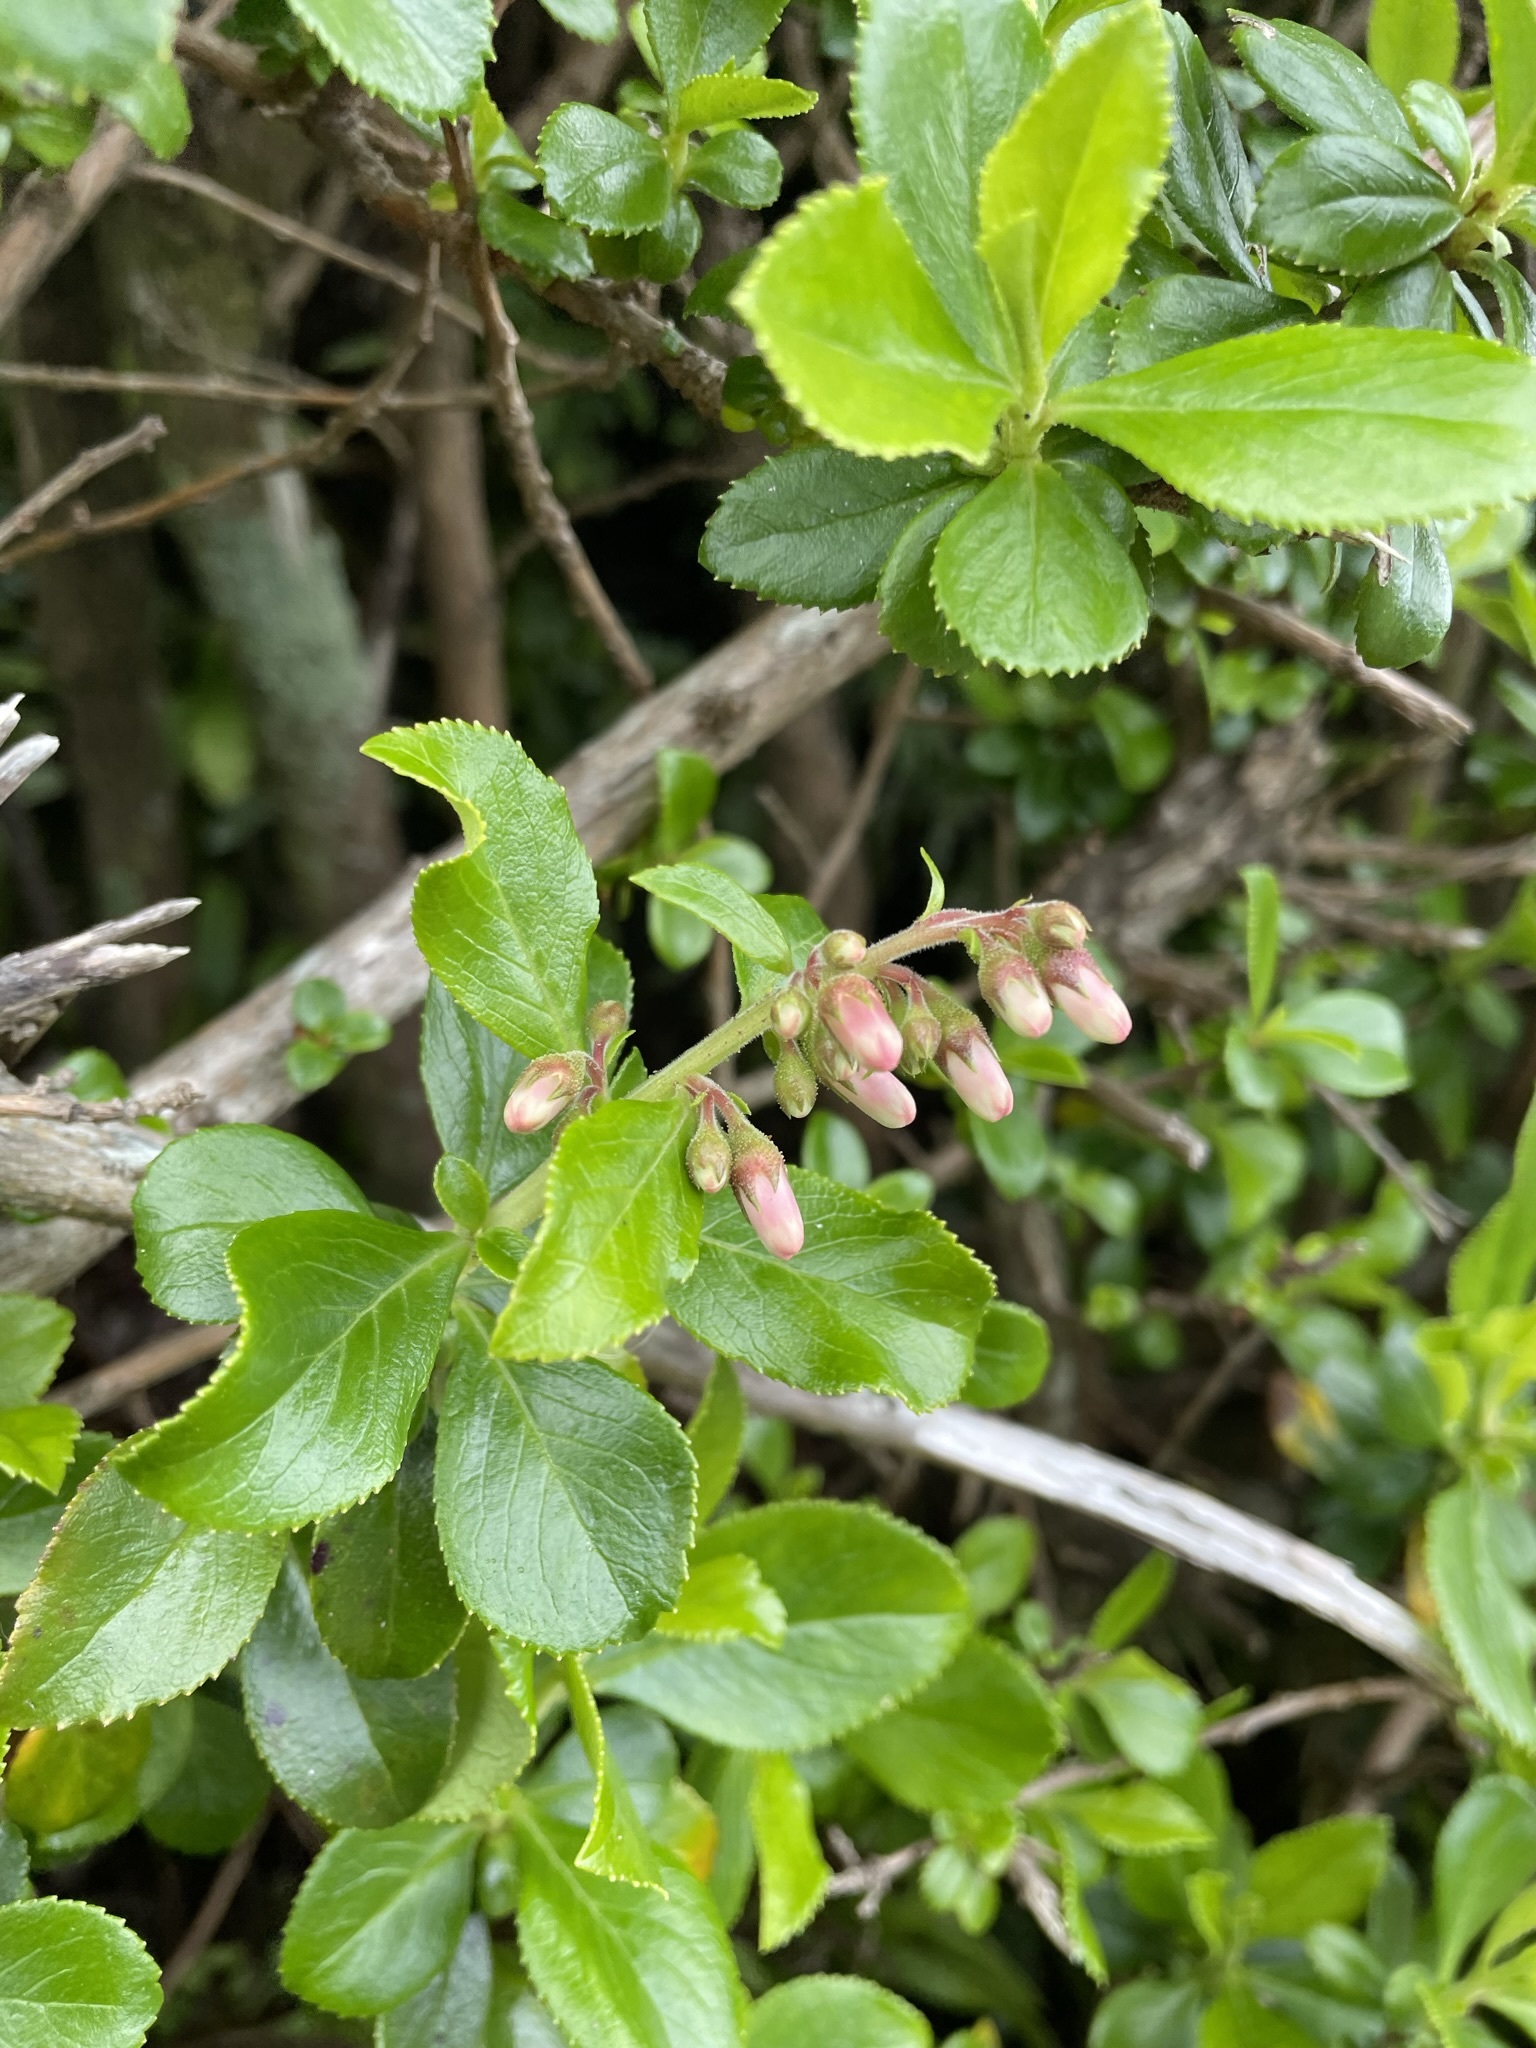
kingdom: Plantae
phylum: Tracheophyta
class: Magnoliopsida
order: Escalloniales
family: Escalloniaceae
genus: Escallonia
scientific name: Escallonia rubra
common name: Redclaws
